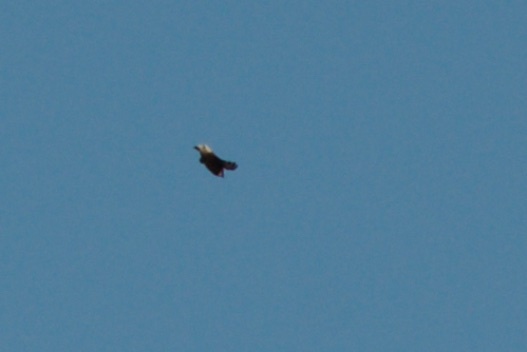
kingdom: Animalia
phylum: Chordata
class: Aves
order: Passeriformes
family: Rhipiduridae
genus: Rhipidura
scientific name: Rhipidura fuliginosa
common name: New zealand fantail
